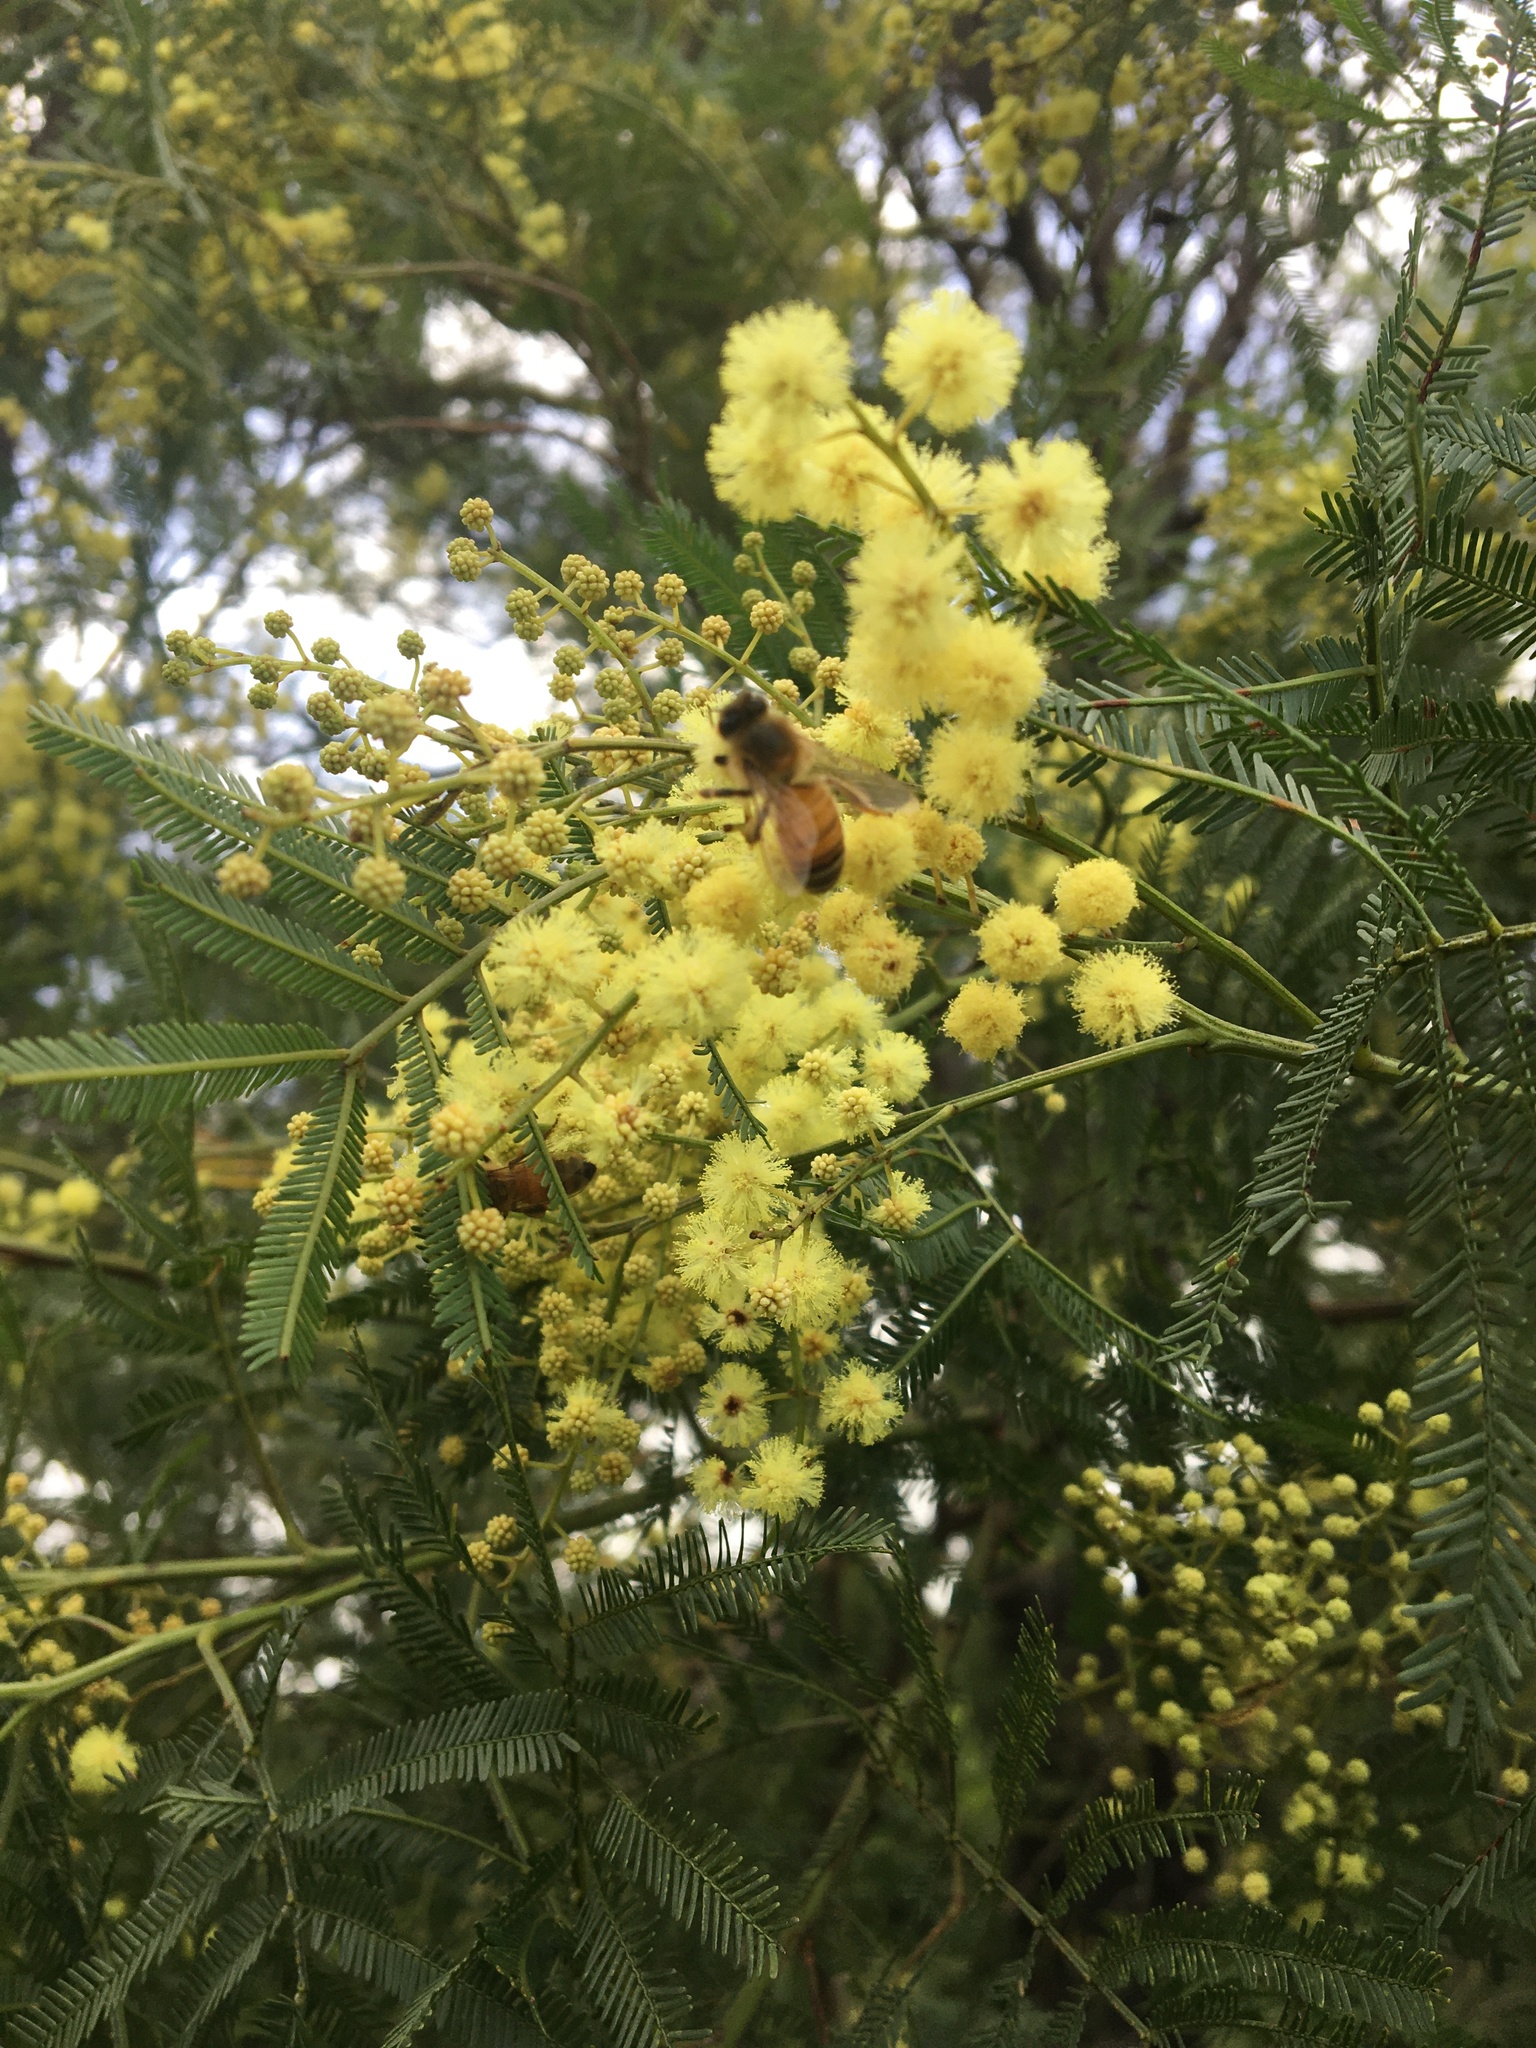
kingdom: Animalia
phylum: Arthropoda
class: Insecta
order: Hymenoptera
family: Apidae
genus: Apis
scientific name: Apis mellifera
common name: Honey bee
